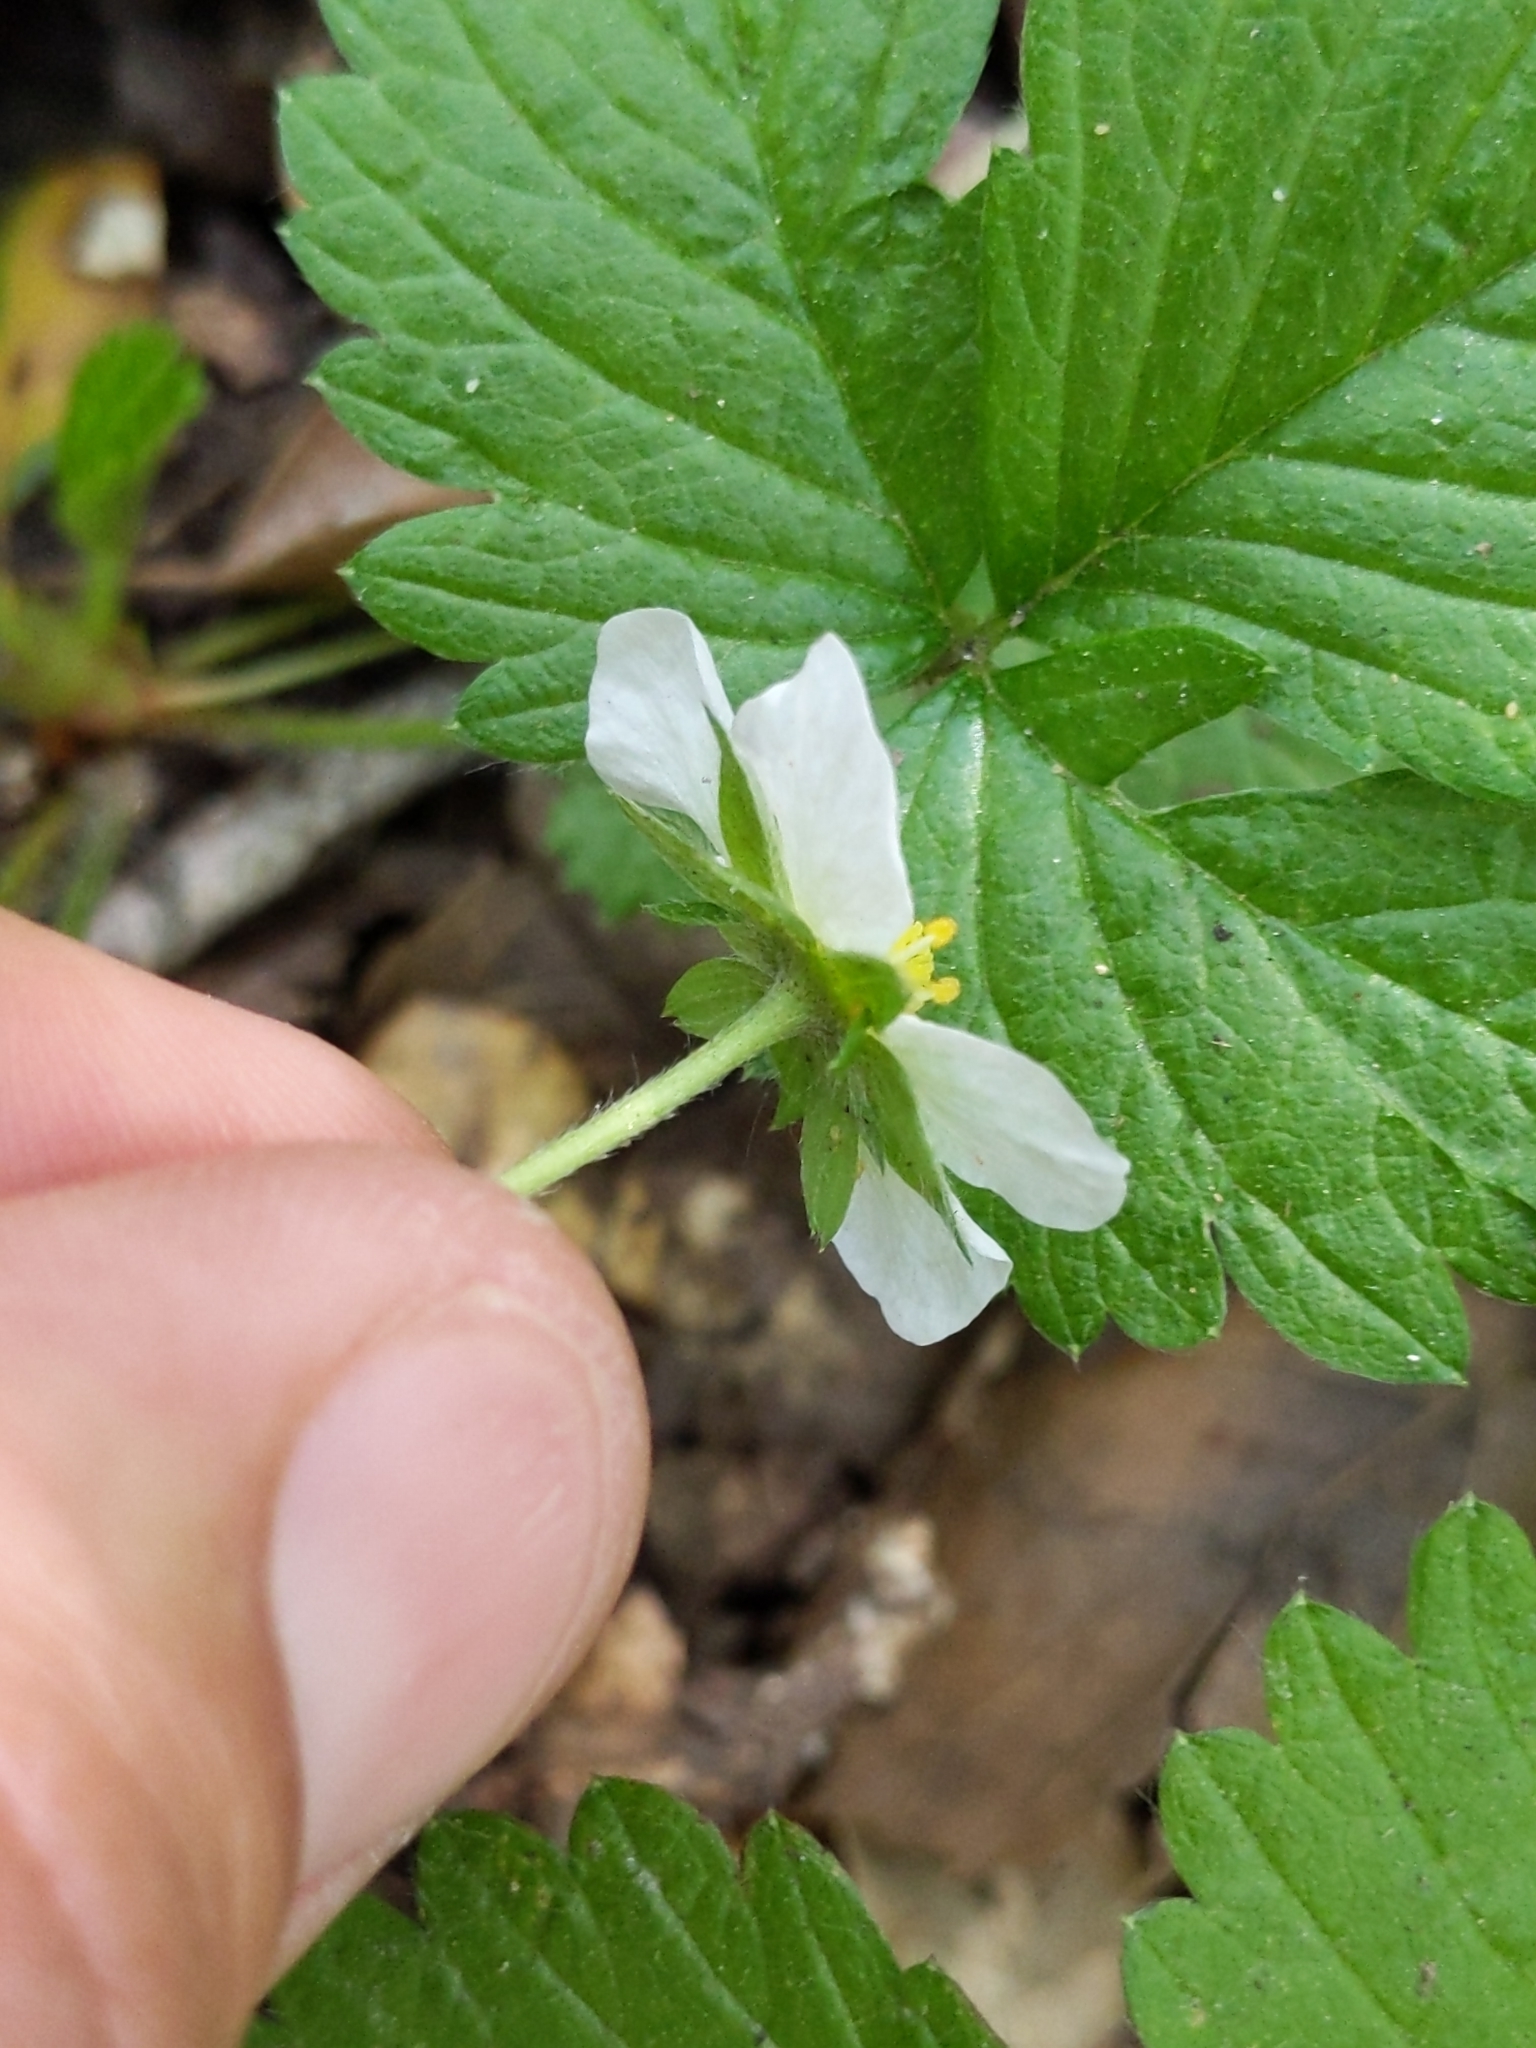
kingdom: Plantae
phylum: Tracheophyta
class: Magnoliopsida
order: Rosales
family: Rosaceae
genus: Fragaria
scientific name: Fragaria vesca
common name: Wild strawberry
